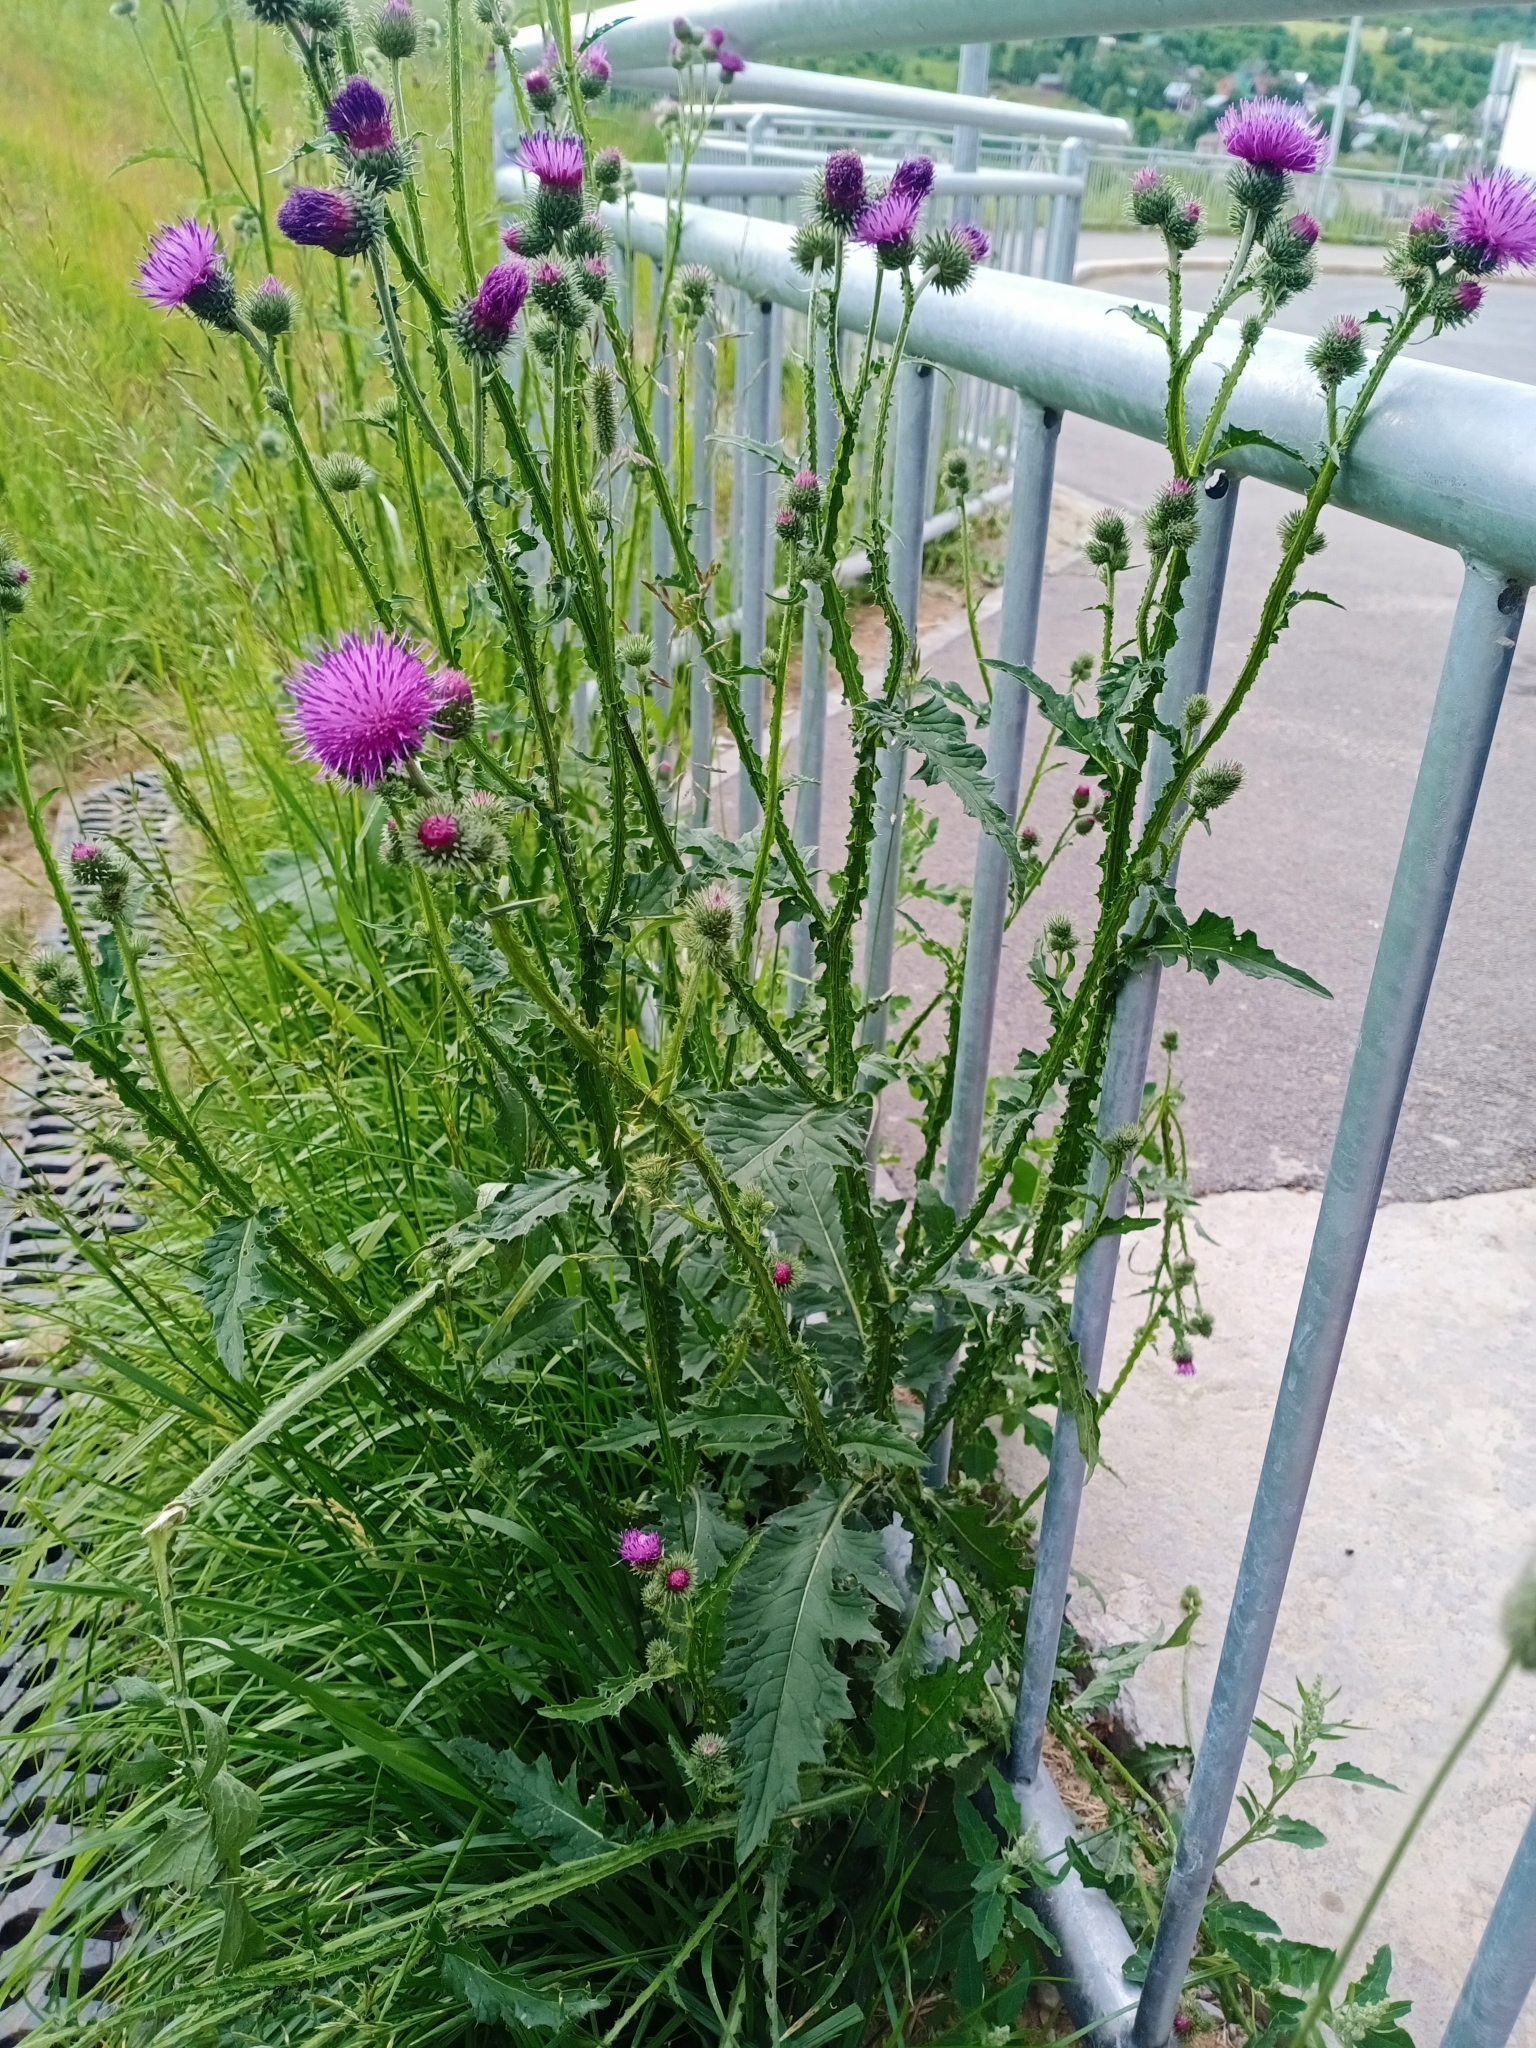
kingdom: Plantae
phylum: Tracheophyta
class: Magnoliopsida
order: Asterales
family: Asteraceae
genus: Carduus
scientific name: Carduus crispus
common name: Welted thistle
